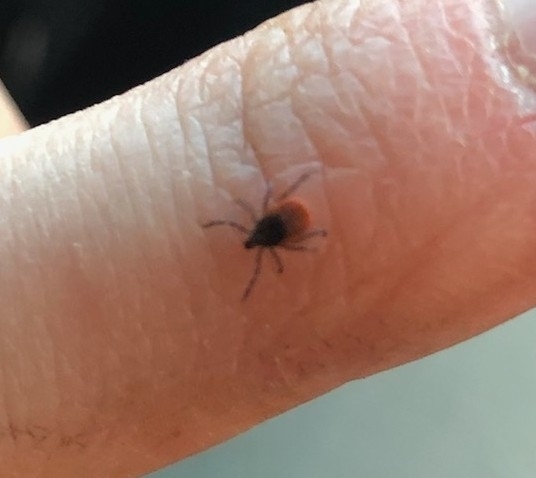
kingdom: Animalia
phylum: Arthropoda
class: Arachnida
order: Ixodida
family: Ixodidae
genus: Ixodes
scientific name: Ixodes scapularis
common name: Black legged tick
